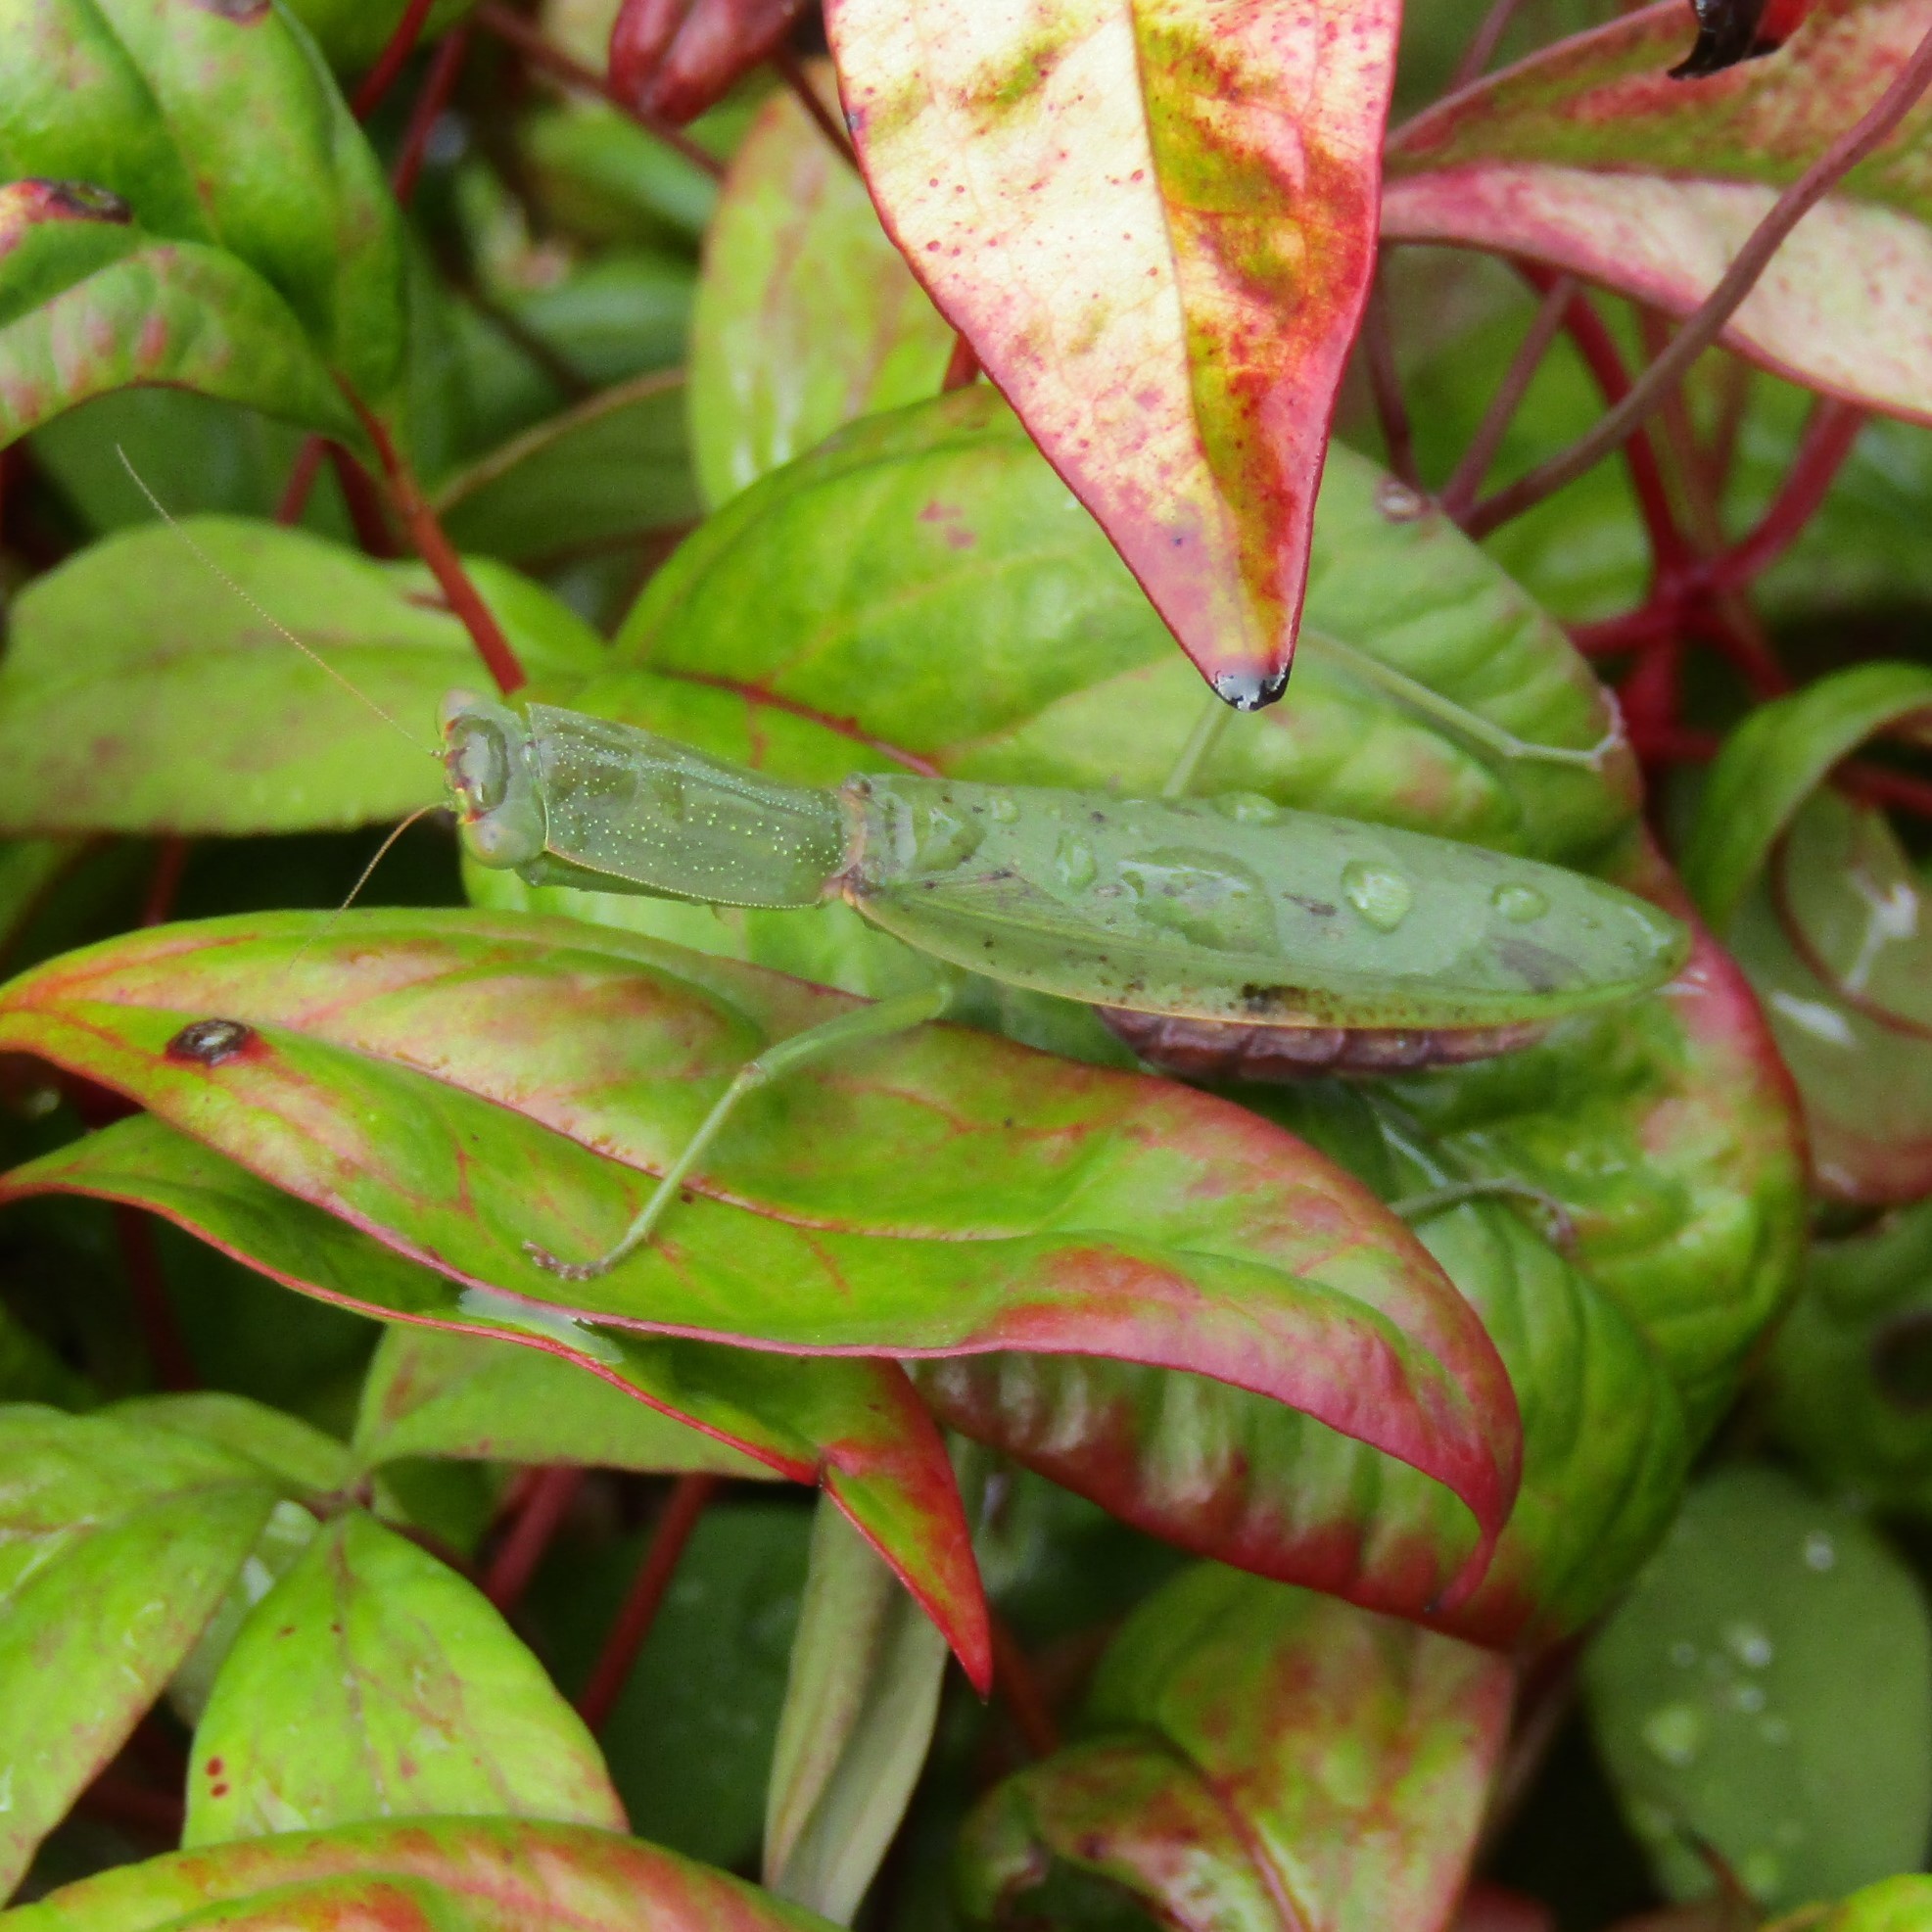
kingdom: Animalia
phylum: Arthropoda
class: Insecta
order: Mantodea
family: Mantidae
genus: Orthodera
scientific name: Orthodera novaezealandiae
